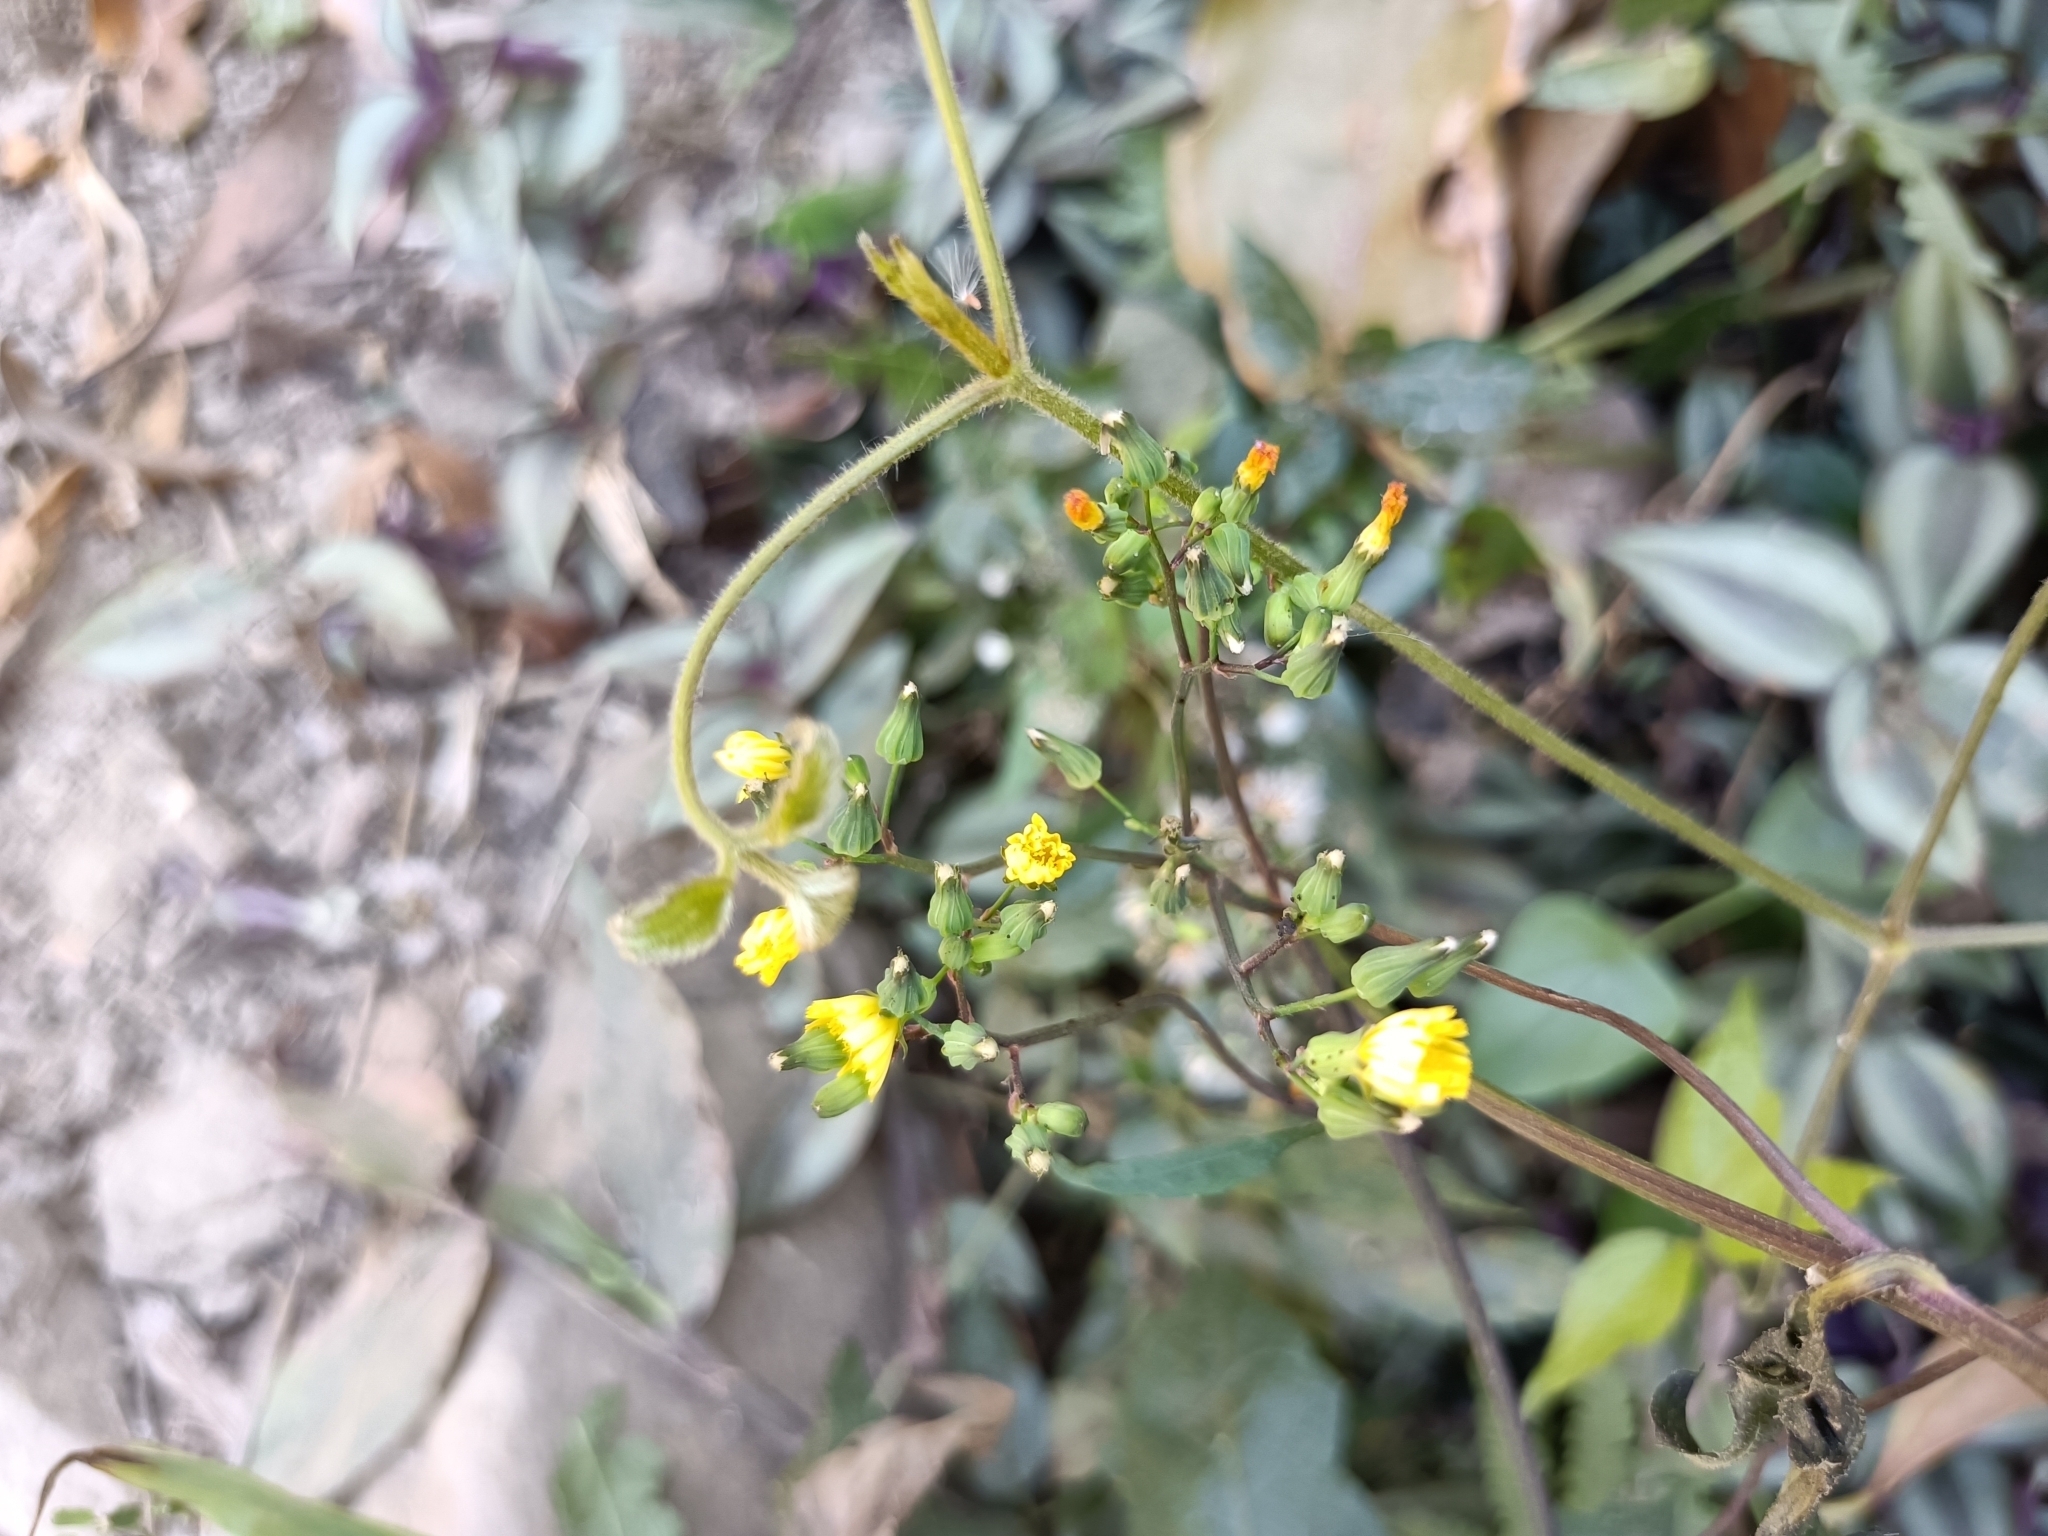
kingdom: Plantae
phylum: Tracheophyta
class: Magnoliopsida
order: Asterales
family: Asteraceae
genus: Youngia
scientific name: Youngia japonica
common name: Oriental false hawksbeard
